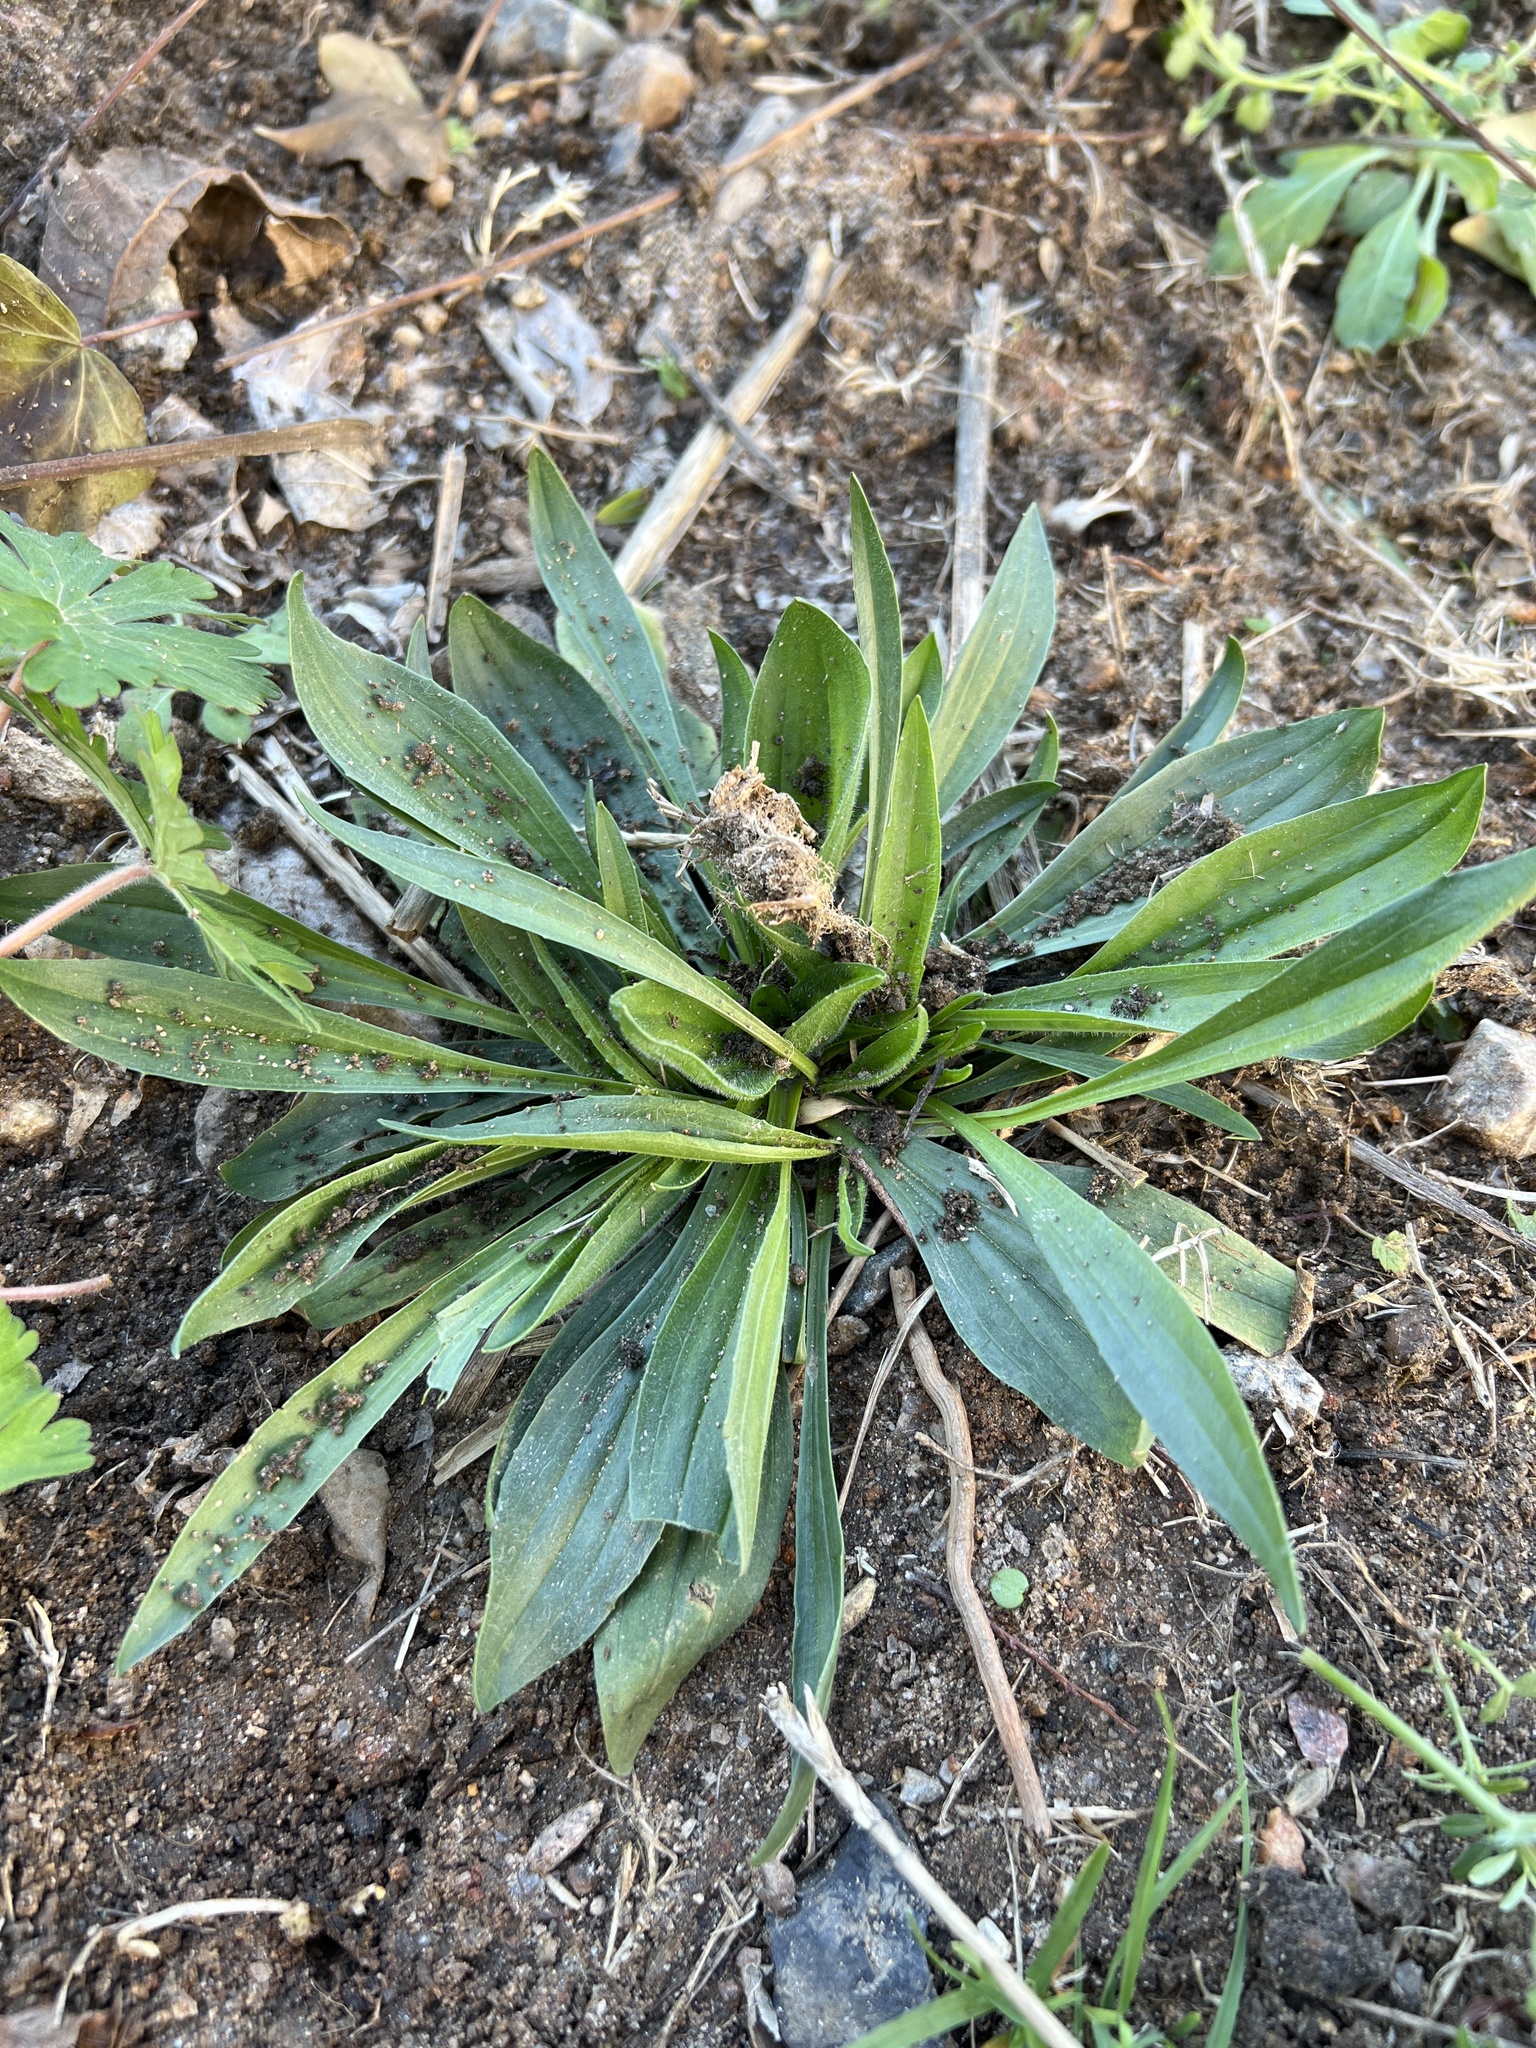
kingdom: Plantae
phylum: Tracheophyta
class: Magnoliopsida
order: Lamiales
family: Plantaginaceae
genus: Plantago
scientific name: Plantago lanceolata
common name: Ribwort plantain
